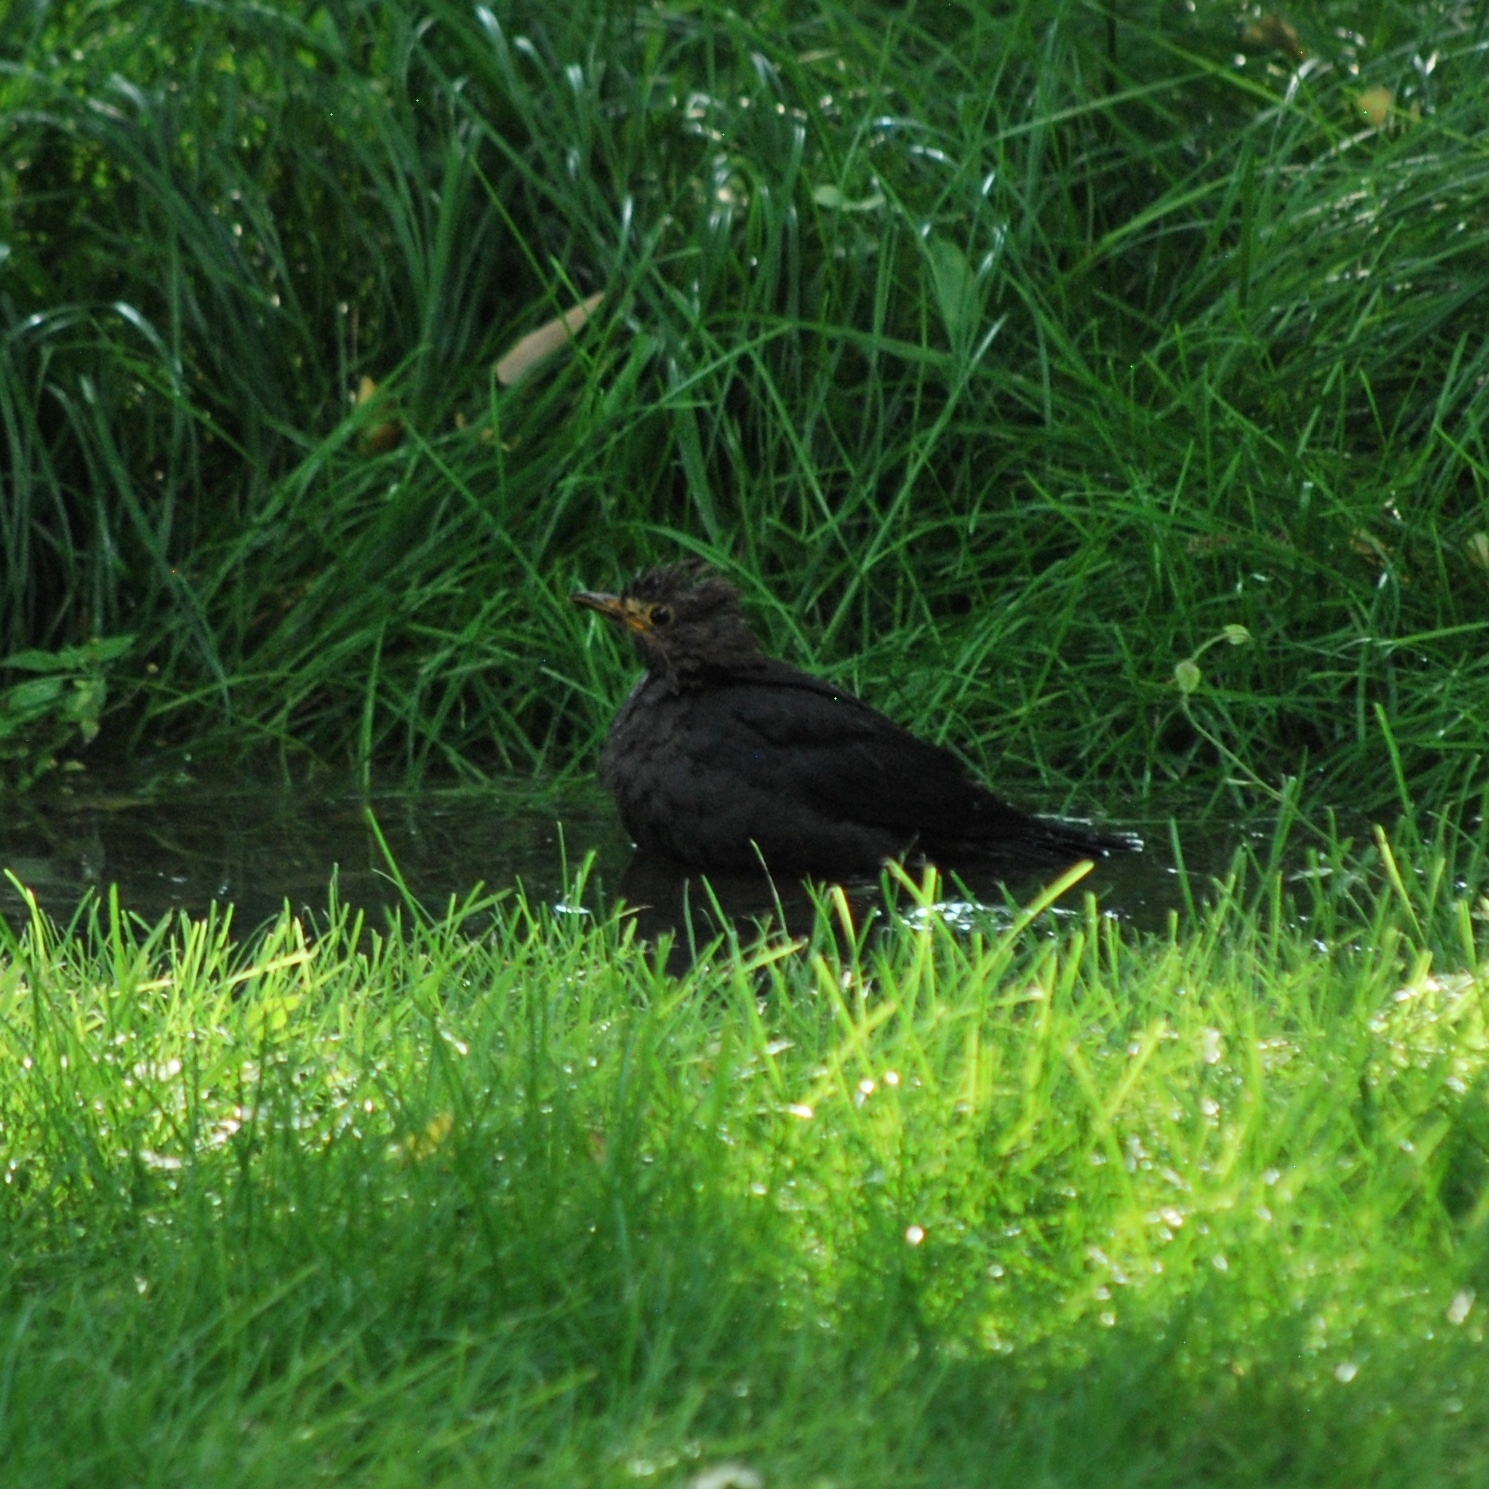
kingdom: Animalia
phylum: Chordata
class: Aves
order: Passeriformes
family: Turdidae
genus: Turdus
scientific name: Turdus mandarinus
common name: Chinese blackbird
